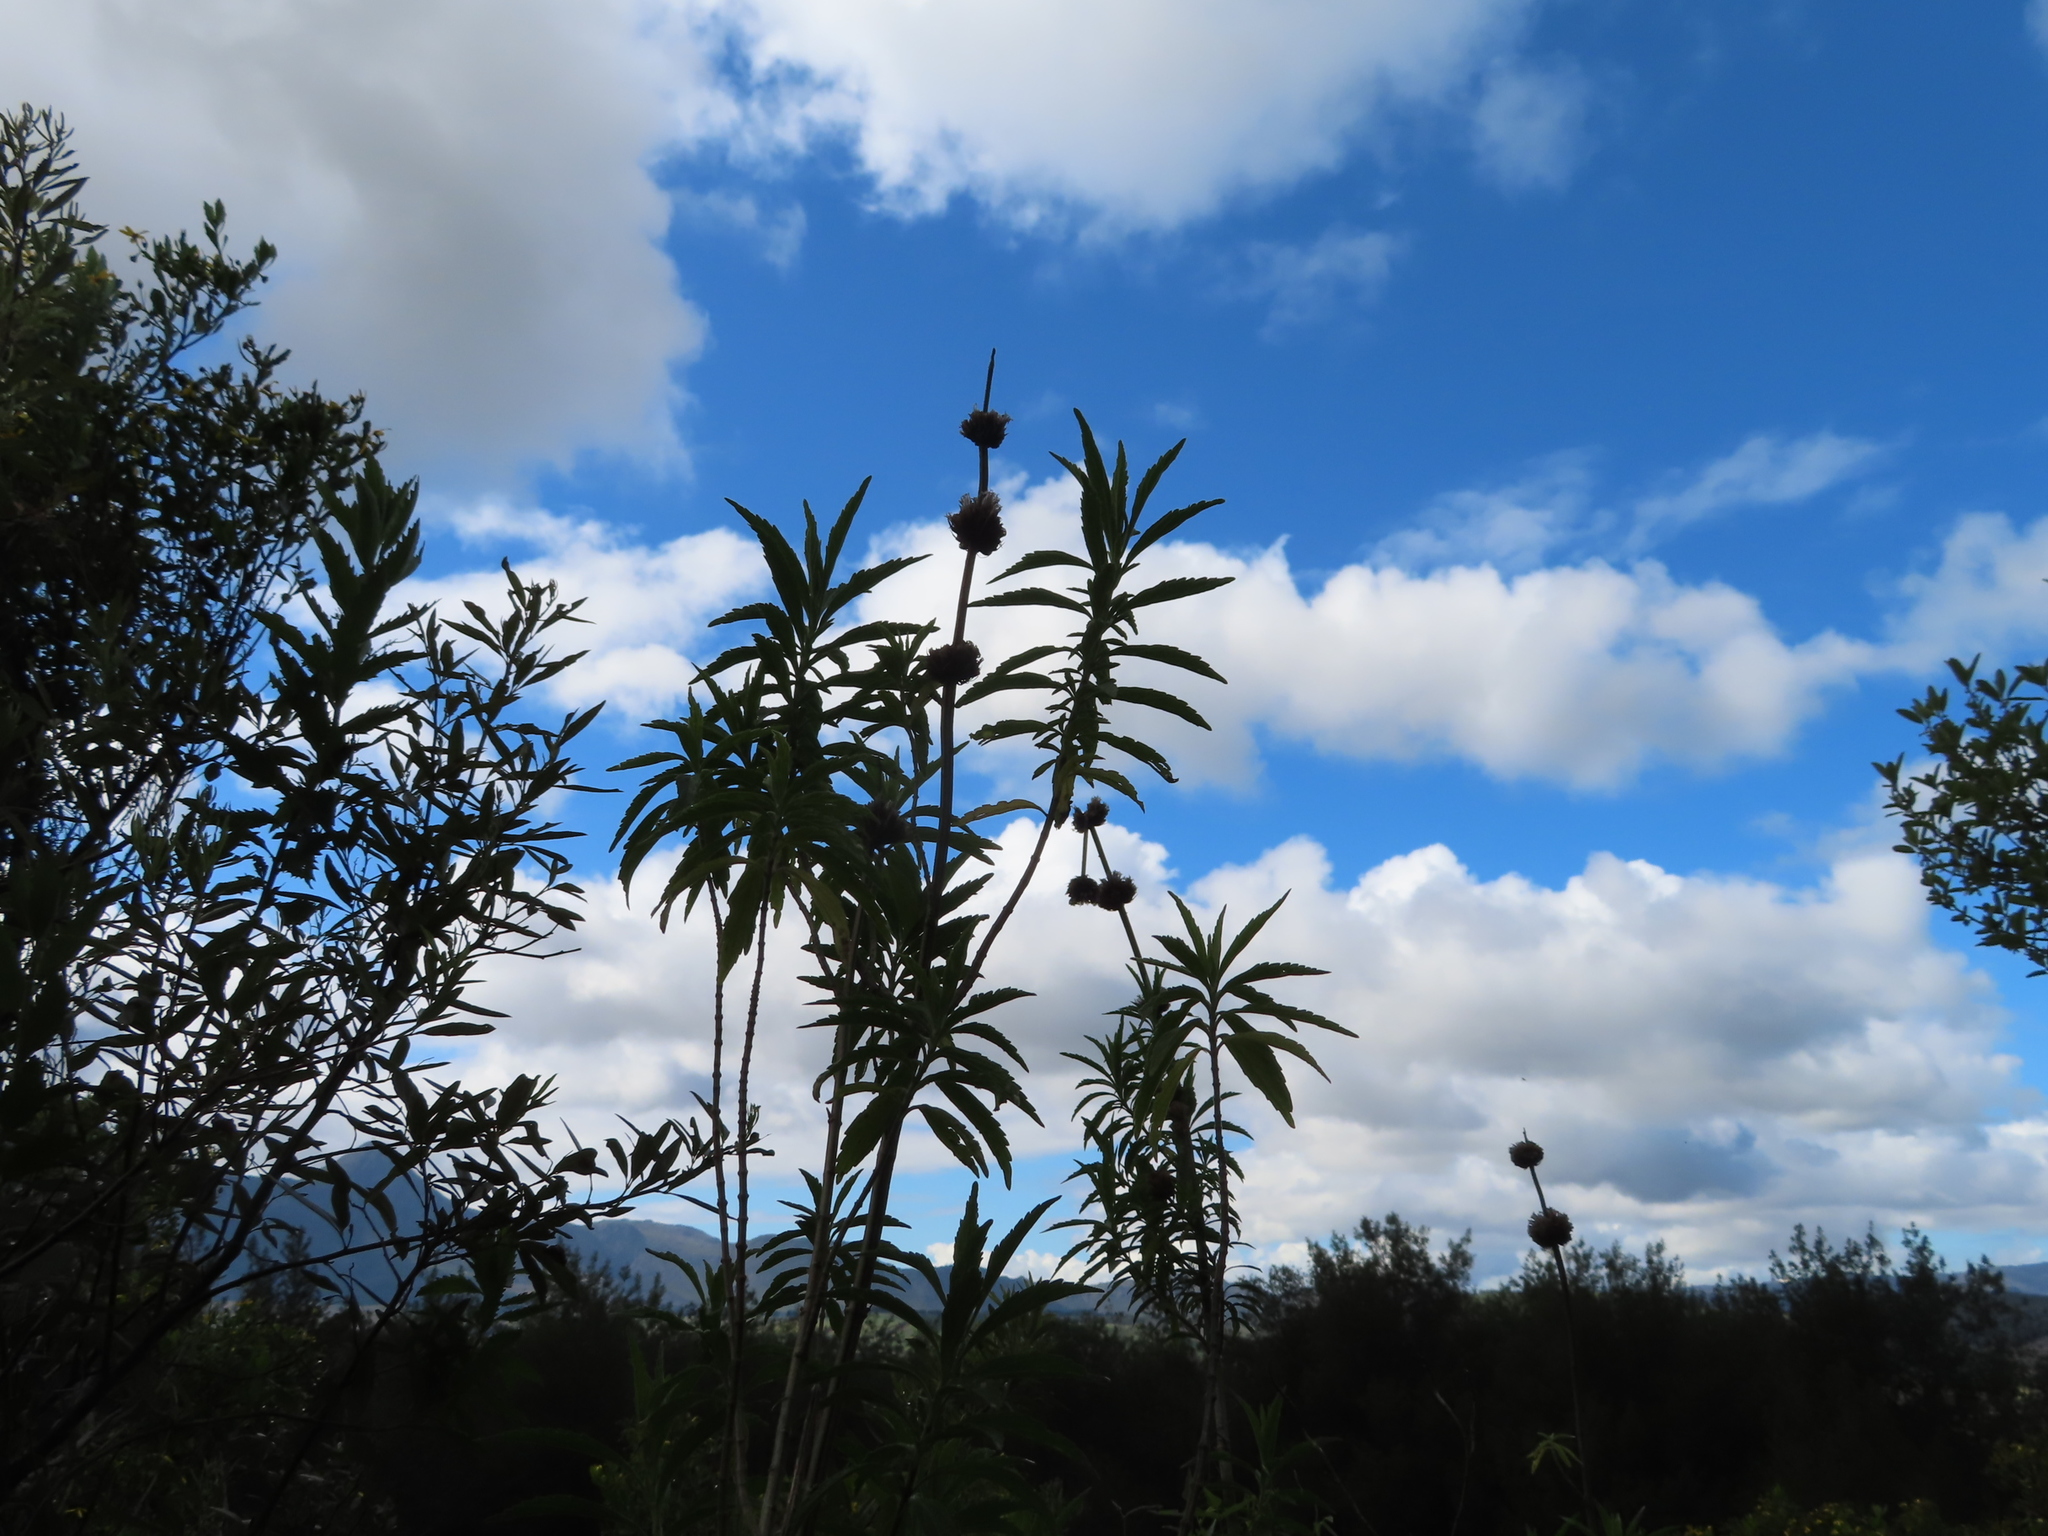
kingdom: Plantae
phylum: Tracheophyta
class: Magnoliopsida
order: Lamiales
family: Lamiaceae
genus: Leonotis
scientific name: Leonotis leonurus
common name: Lion's ear
